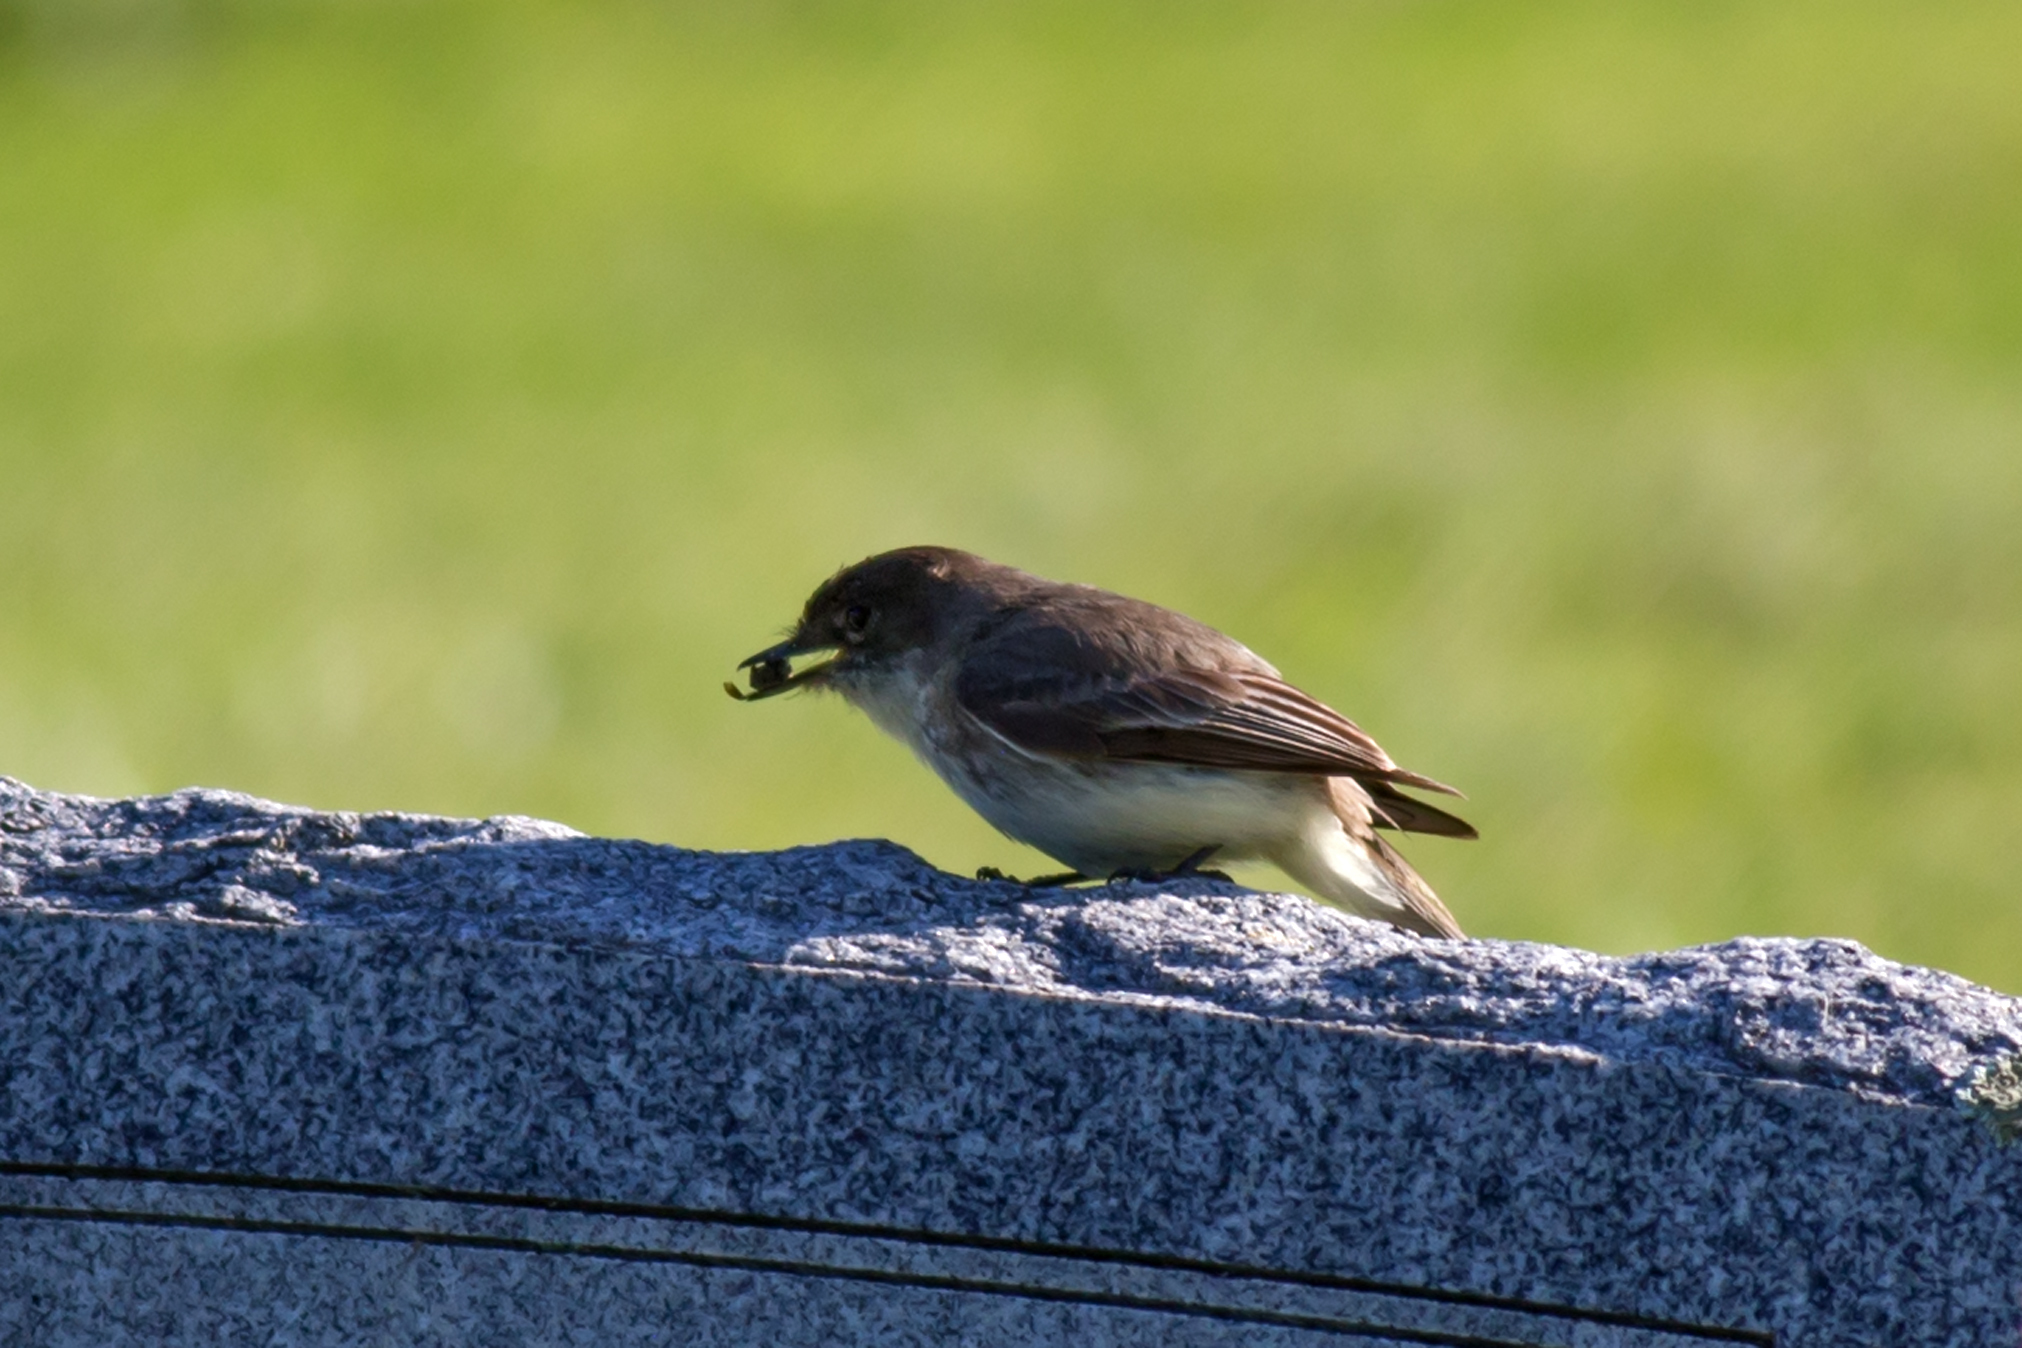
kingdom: Animalia
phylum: Chordata
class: Aves
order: Passeriformes
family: Tyrannidae
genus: Sayornis
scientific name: Sayornis phoebe
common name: Eastern phoebe
